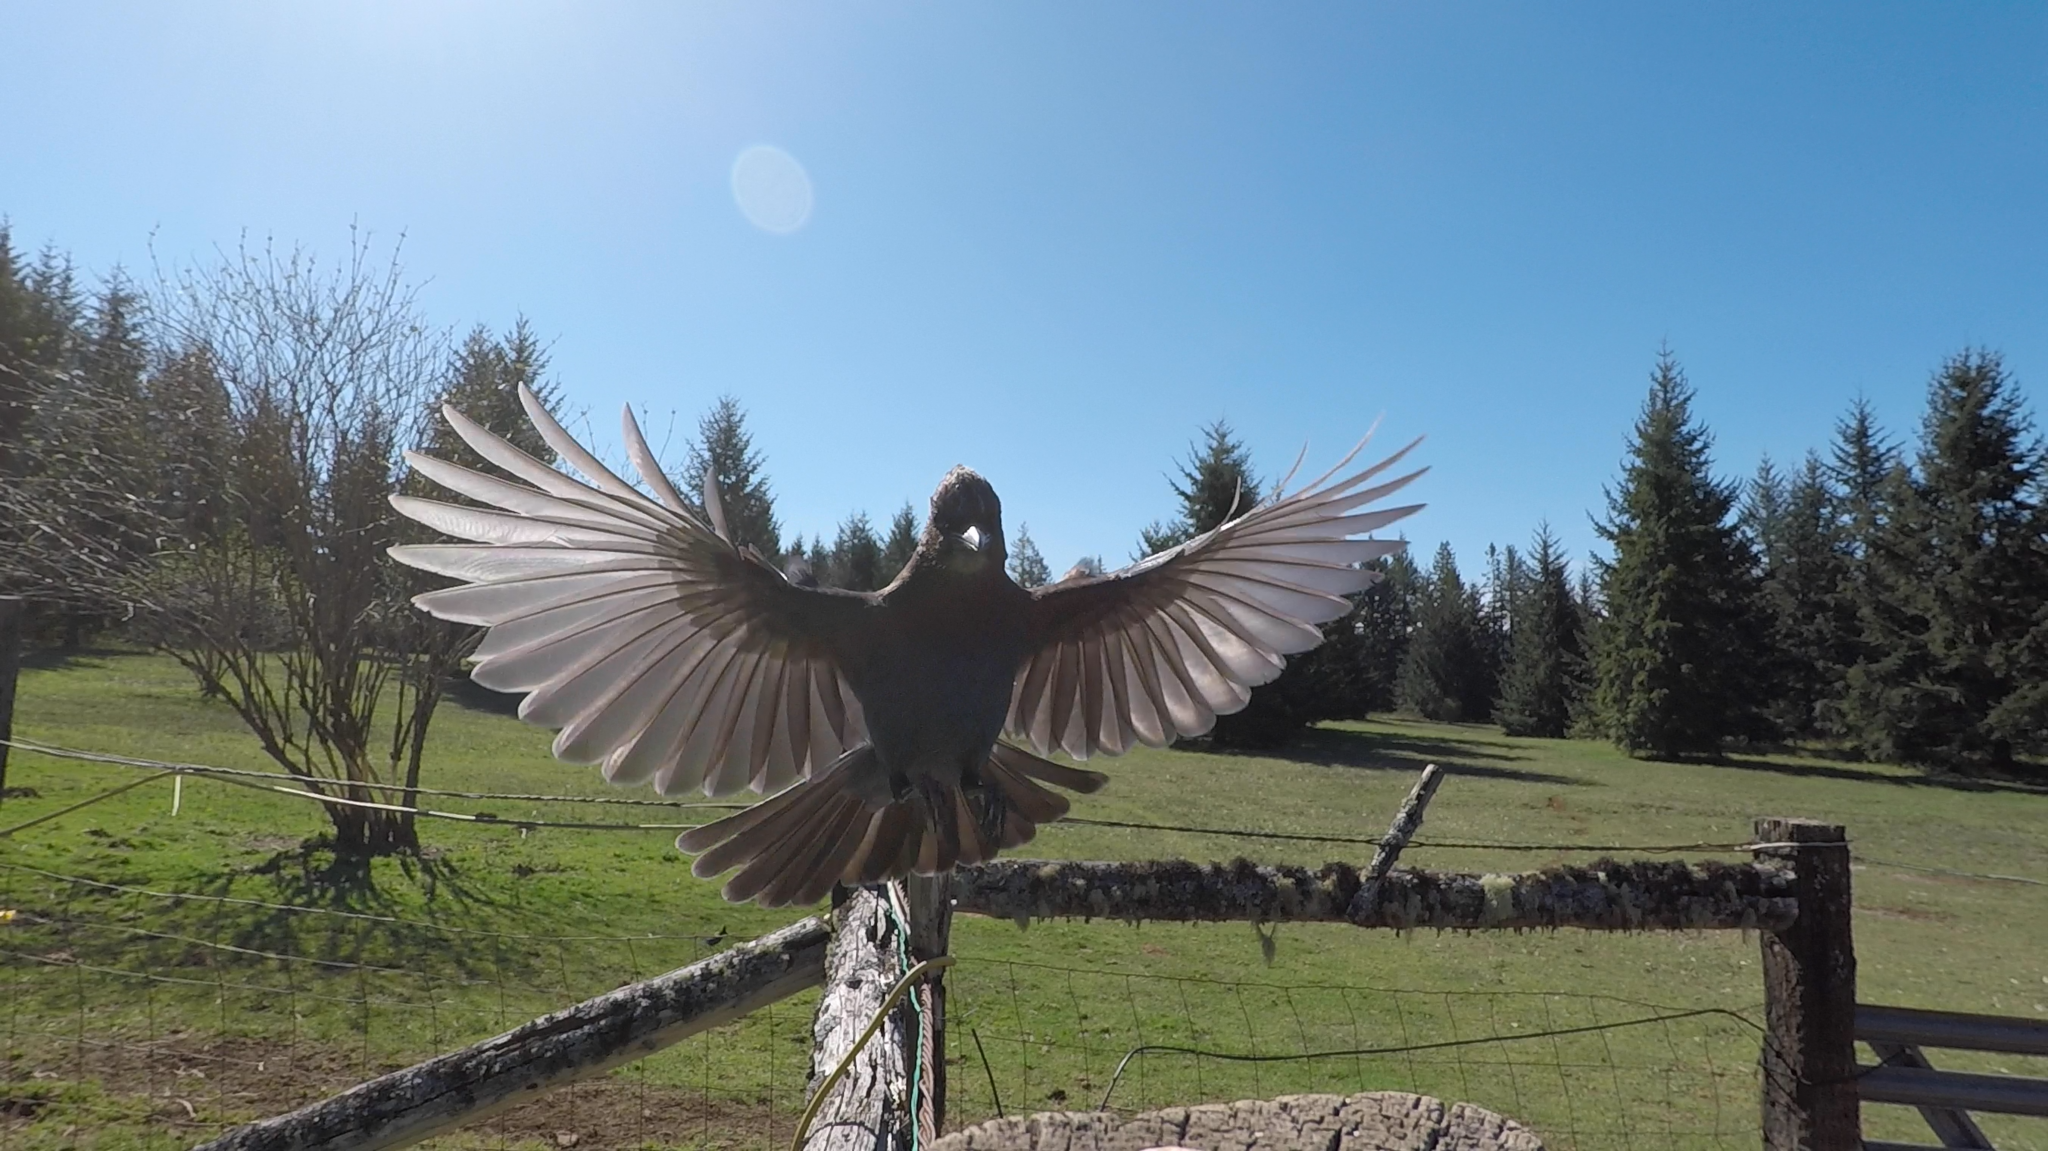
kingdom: Animalia
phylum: Chordata
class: Aves
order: Passeriformes
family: Corvidae
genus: Cyanocitta
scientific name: Cyanocitta stelleri
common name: Steller's jay
